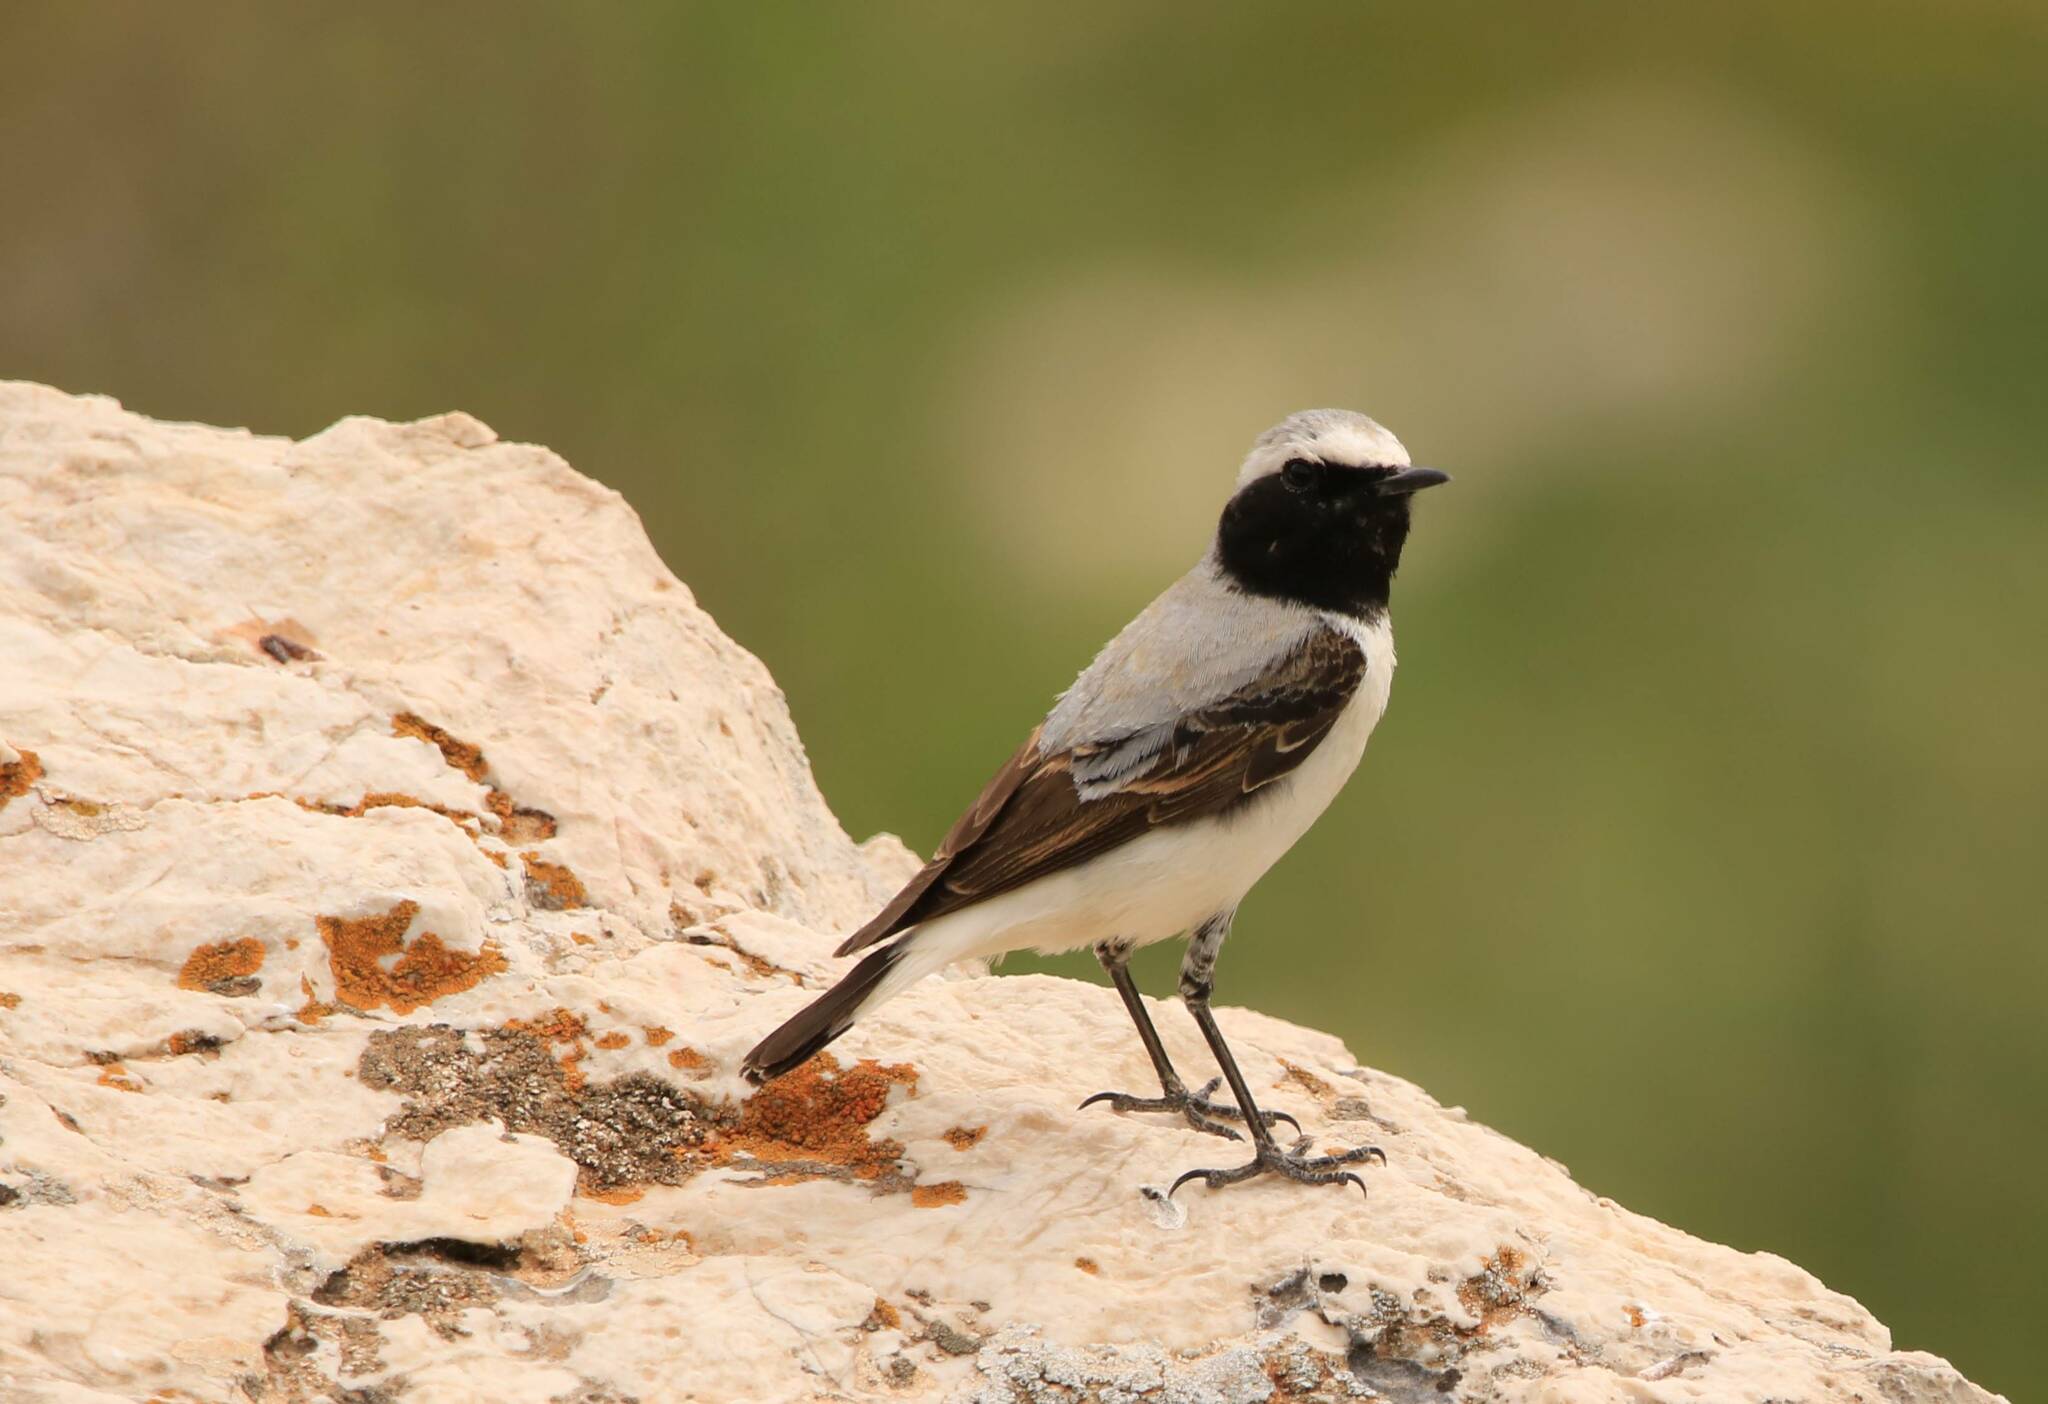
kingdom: Animalia
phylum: Chordata
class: Aves
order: Passeriformes
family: Muscicapidae
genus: Oenanthe
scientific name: Oenanthe oenanthe
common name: Northern wheatear
